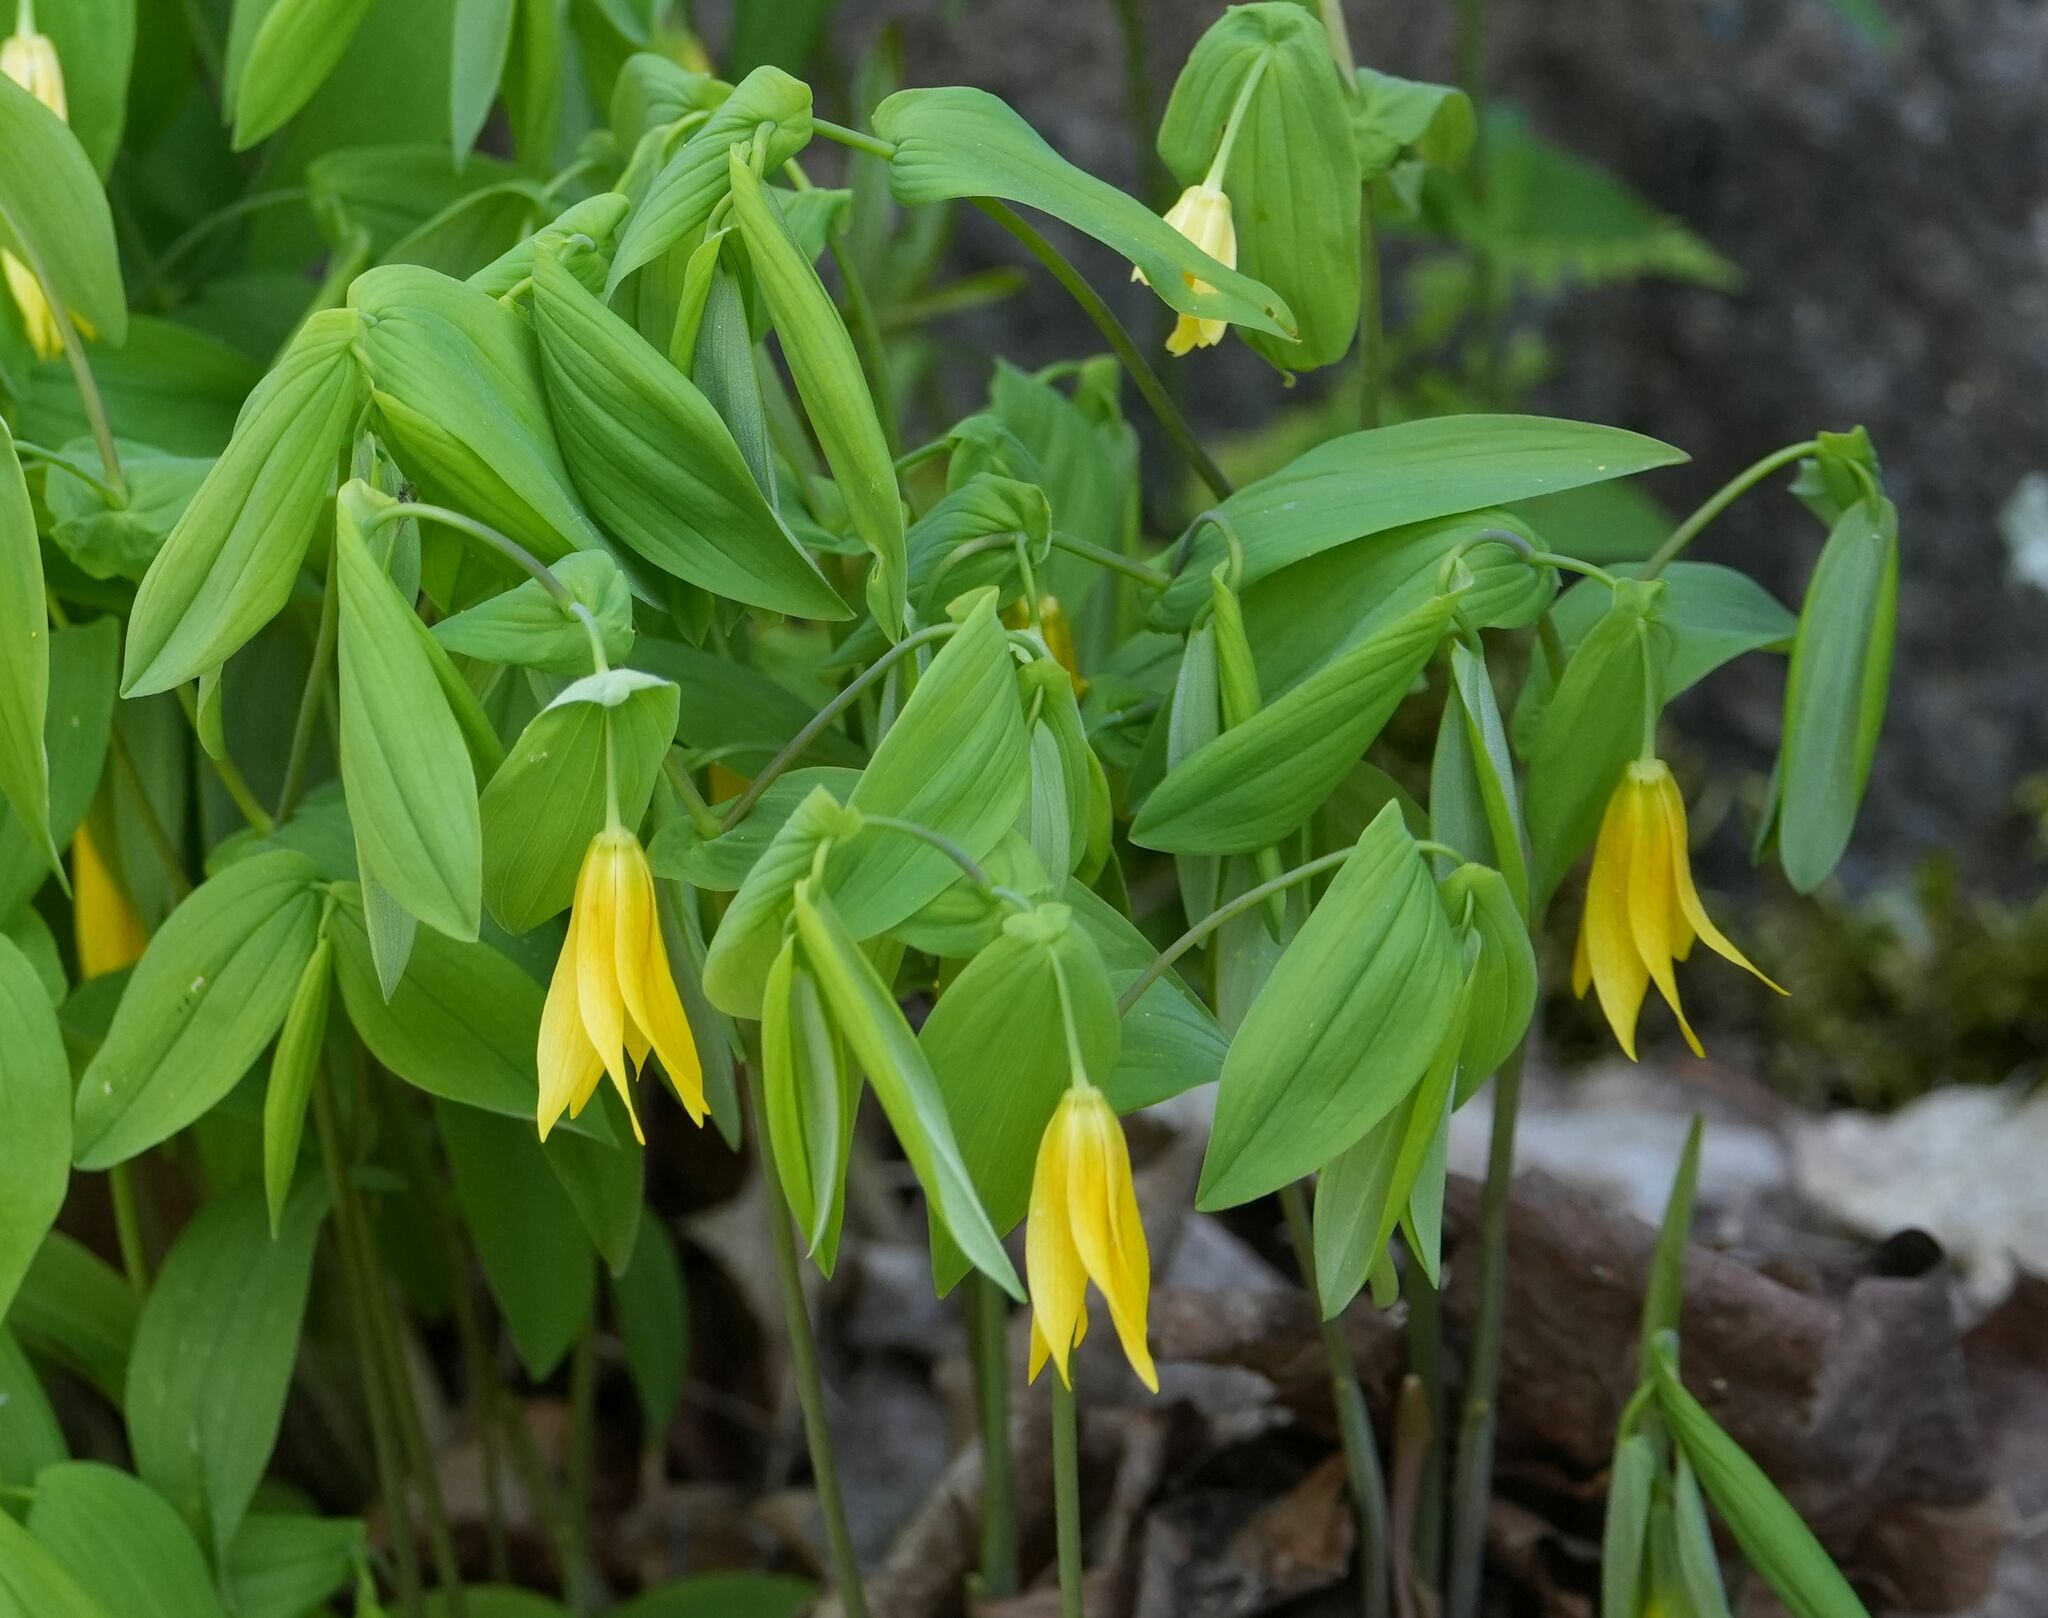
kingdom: Plantae
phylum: Tracheophyta
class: Liliopsida
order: Liliales
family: Colchicaceae
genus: Uvularia
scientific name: Uvularia grandiflora
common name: Bellwort
